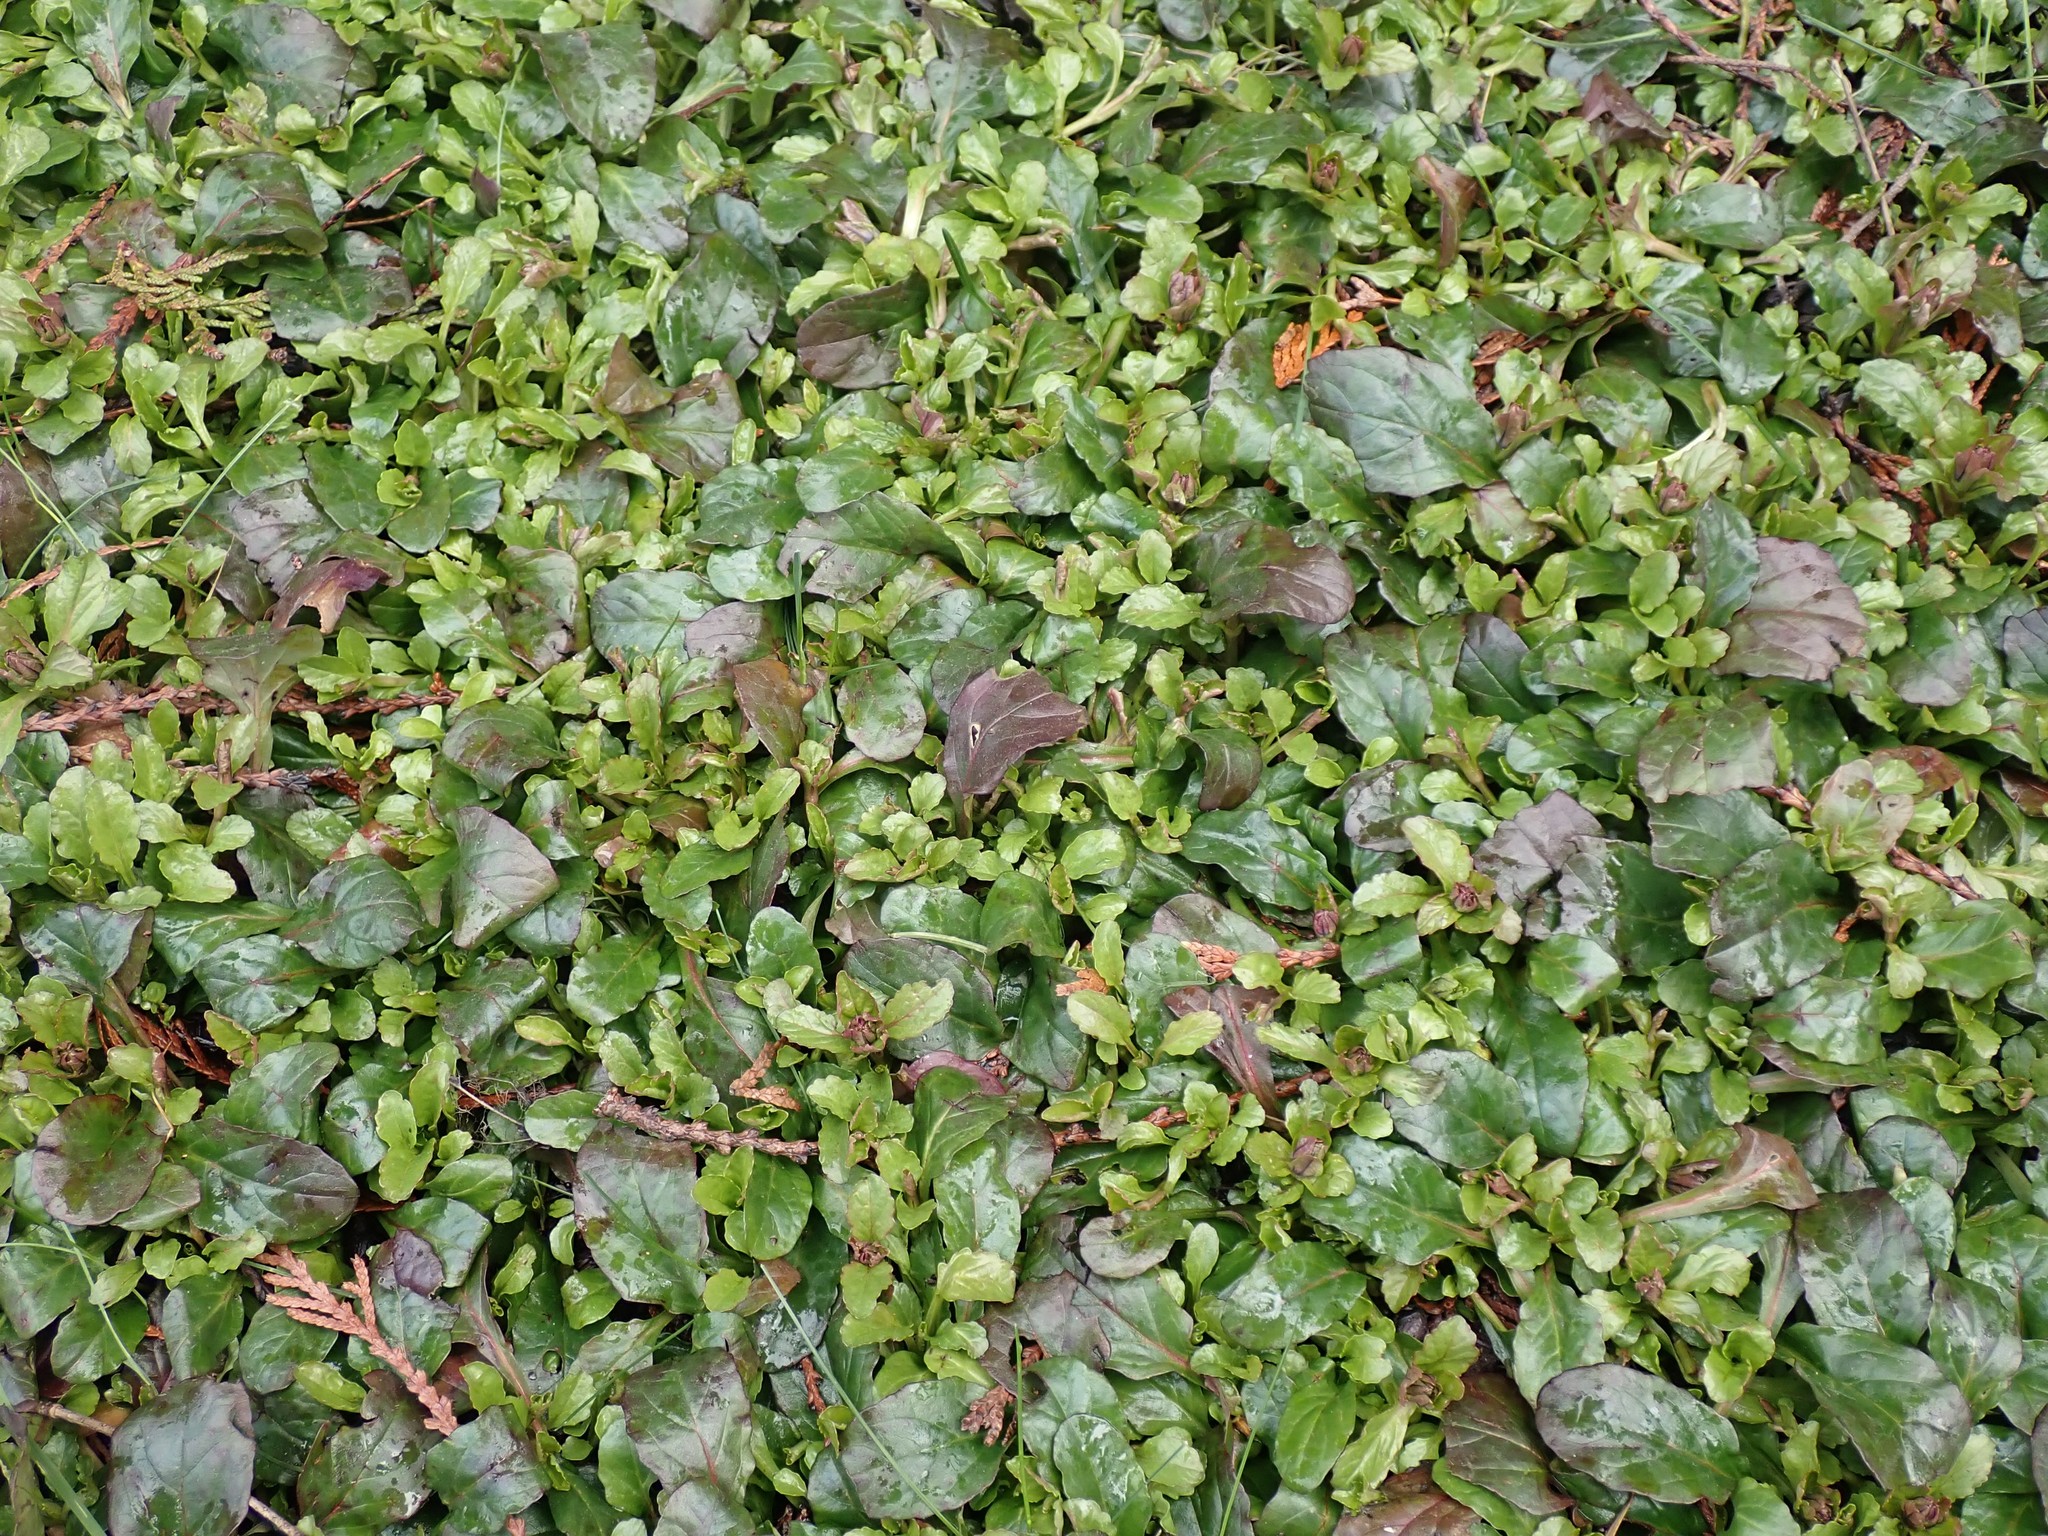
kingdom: Plantae
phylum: Tracheophyta
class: Magnoliopsida
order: Lamiales
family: Lamiaceae
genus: Ajuga
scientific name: Ajuga reptans
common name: Bugle
